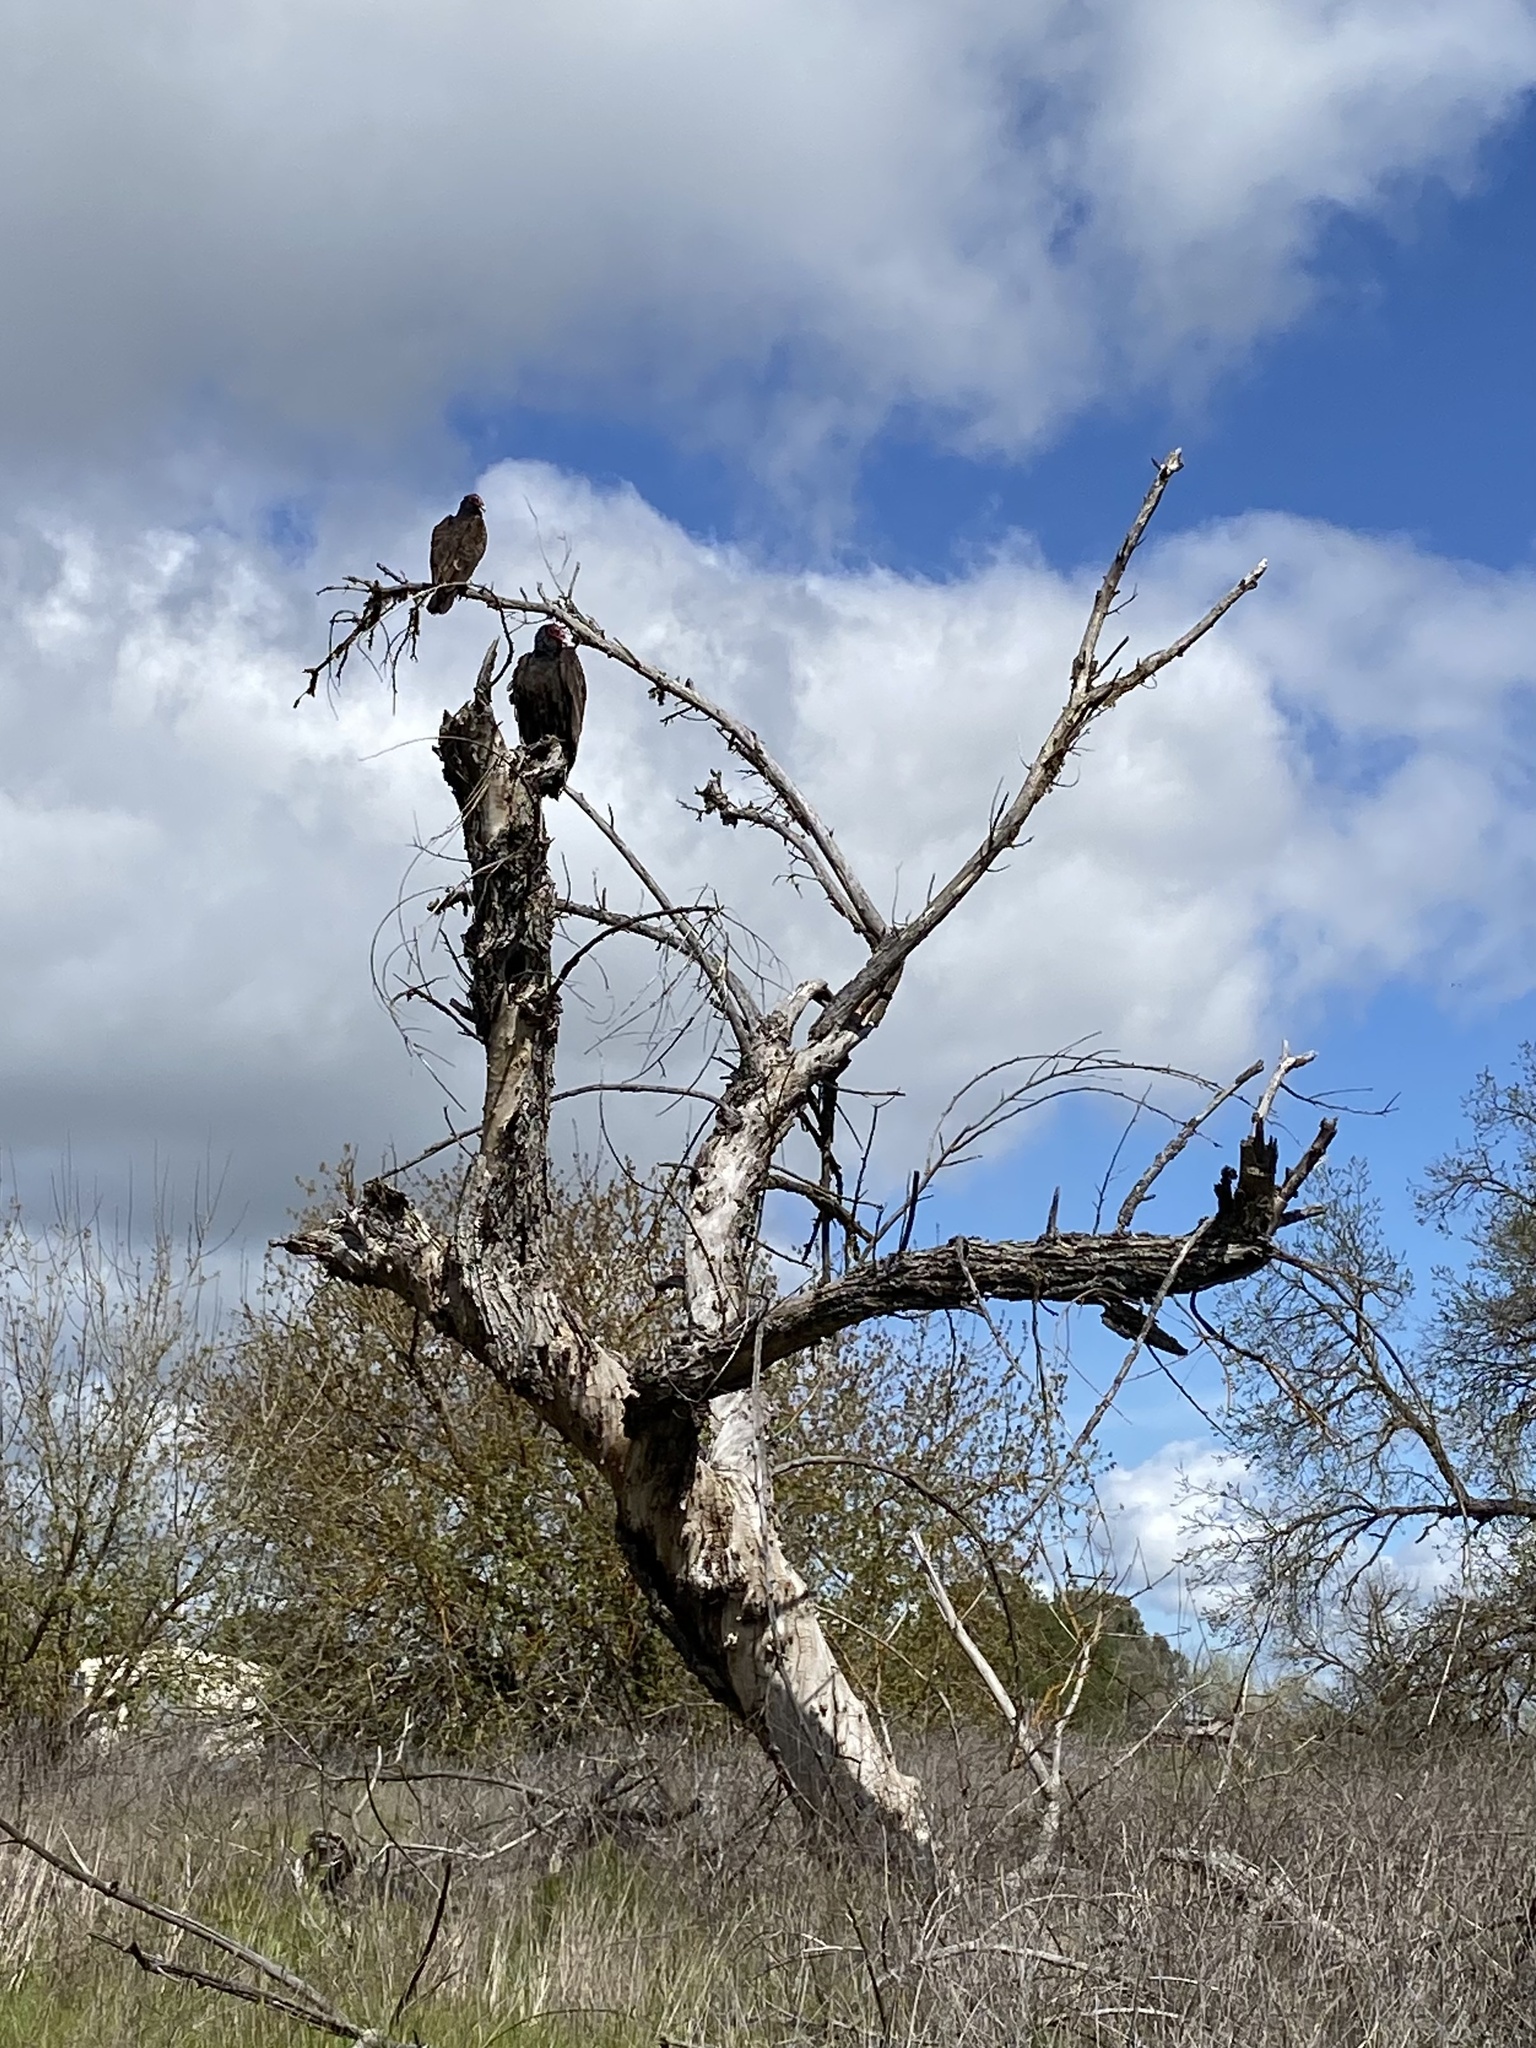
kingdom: Animalia
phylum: Chordata
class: Aves
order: Accipitriformes
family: Cathartidae
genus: Cathartes
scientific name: Cathartes aura
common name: Turkey vulture
